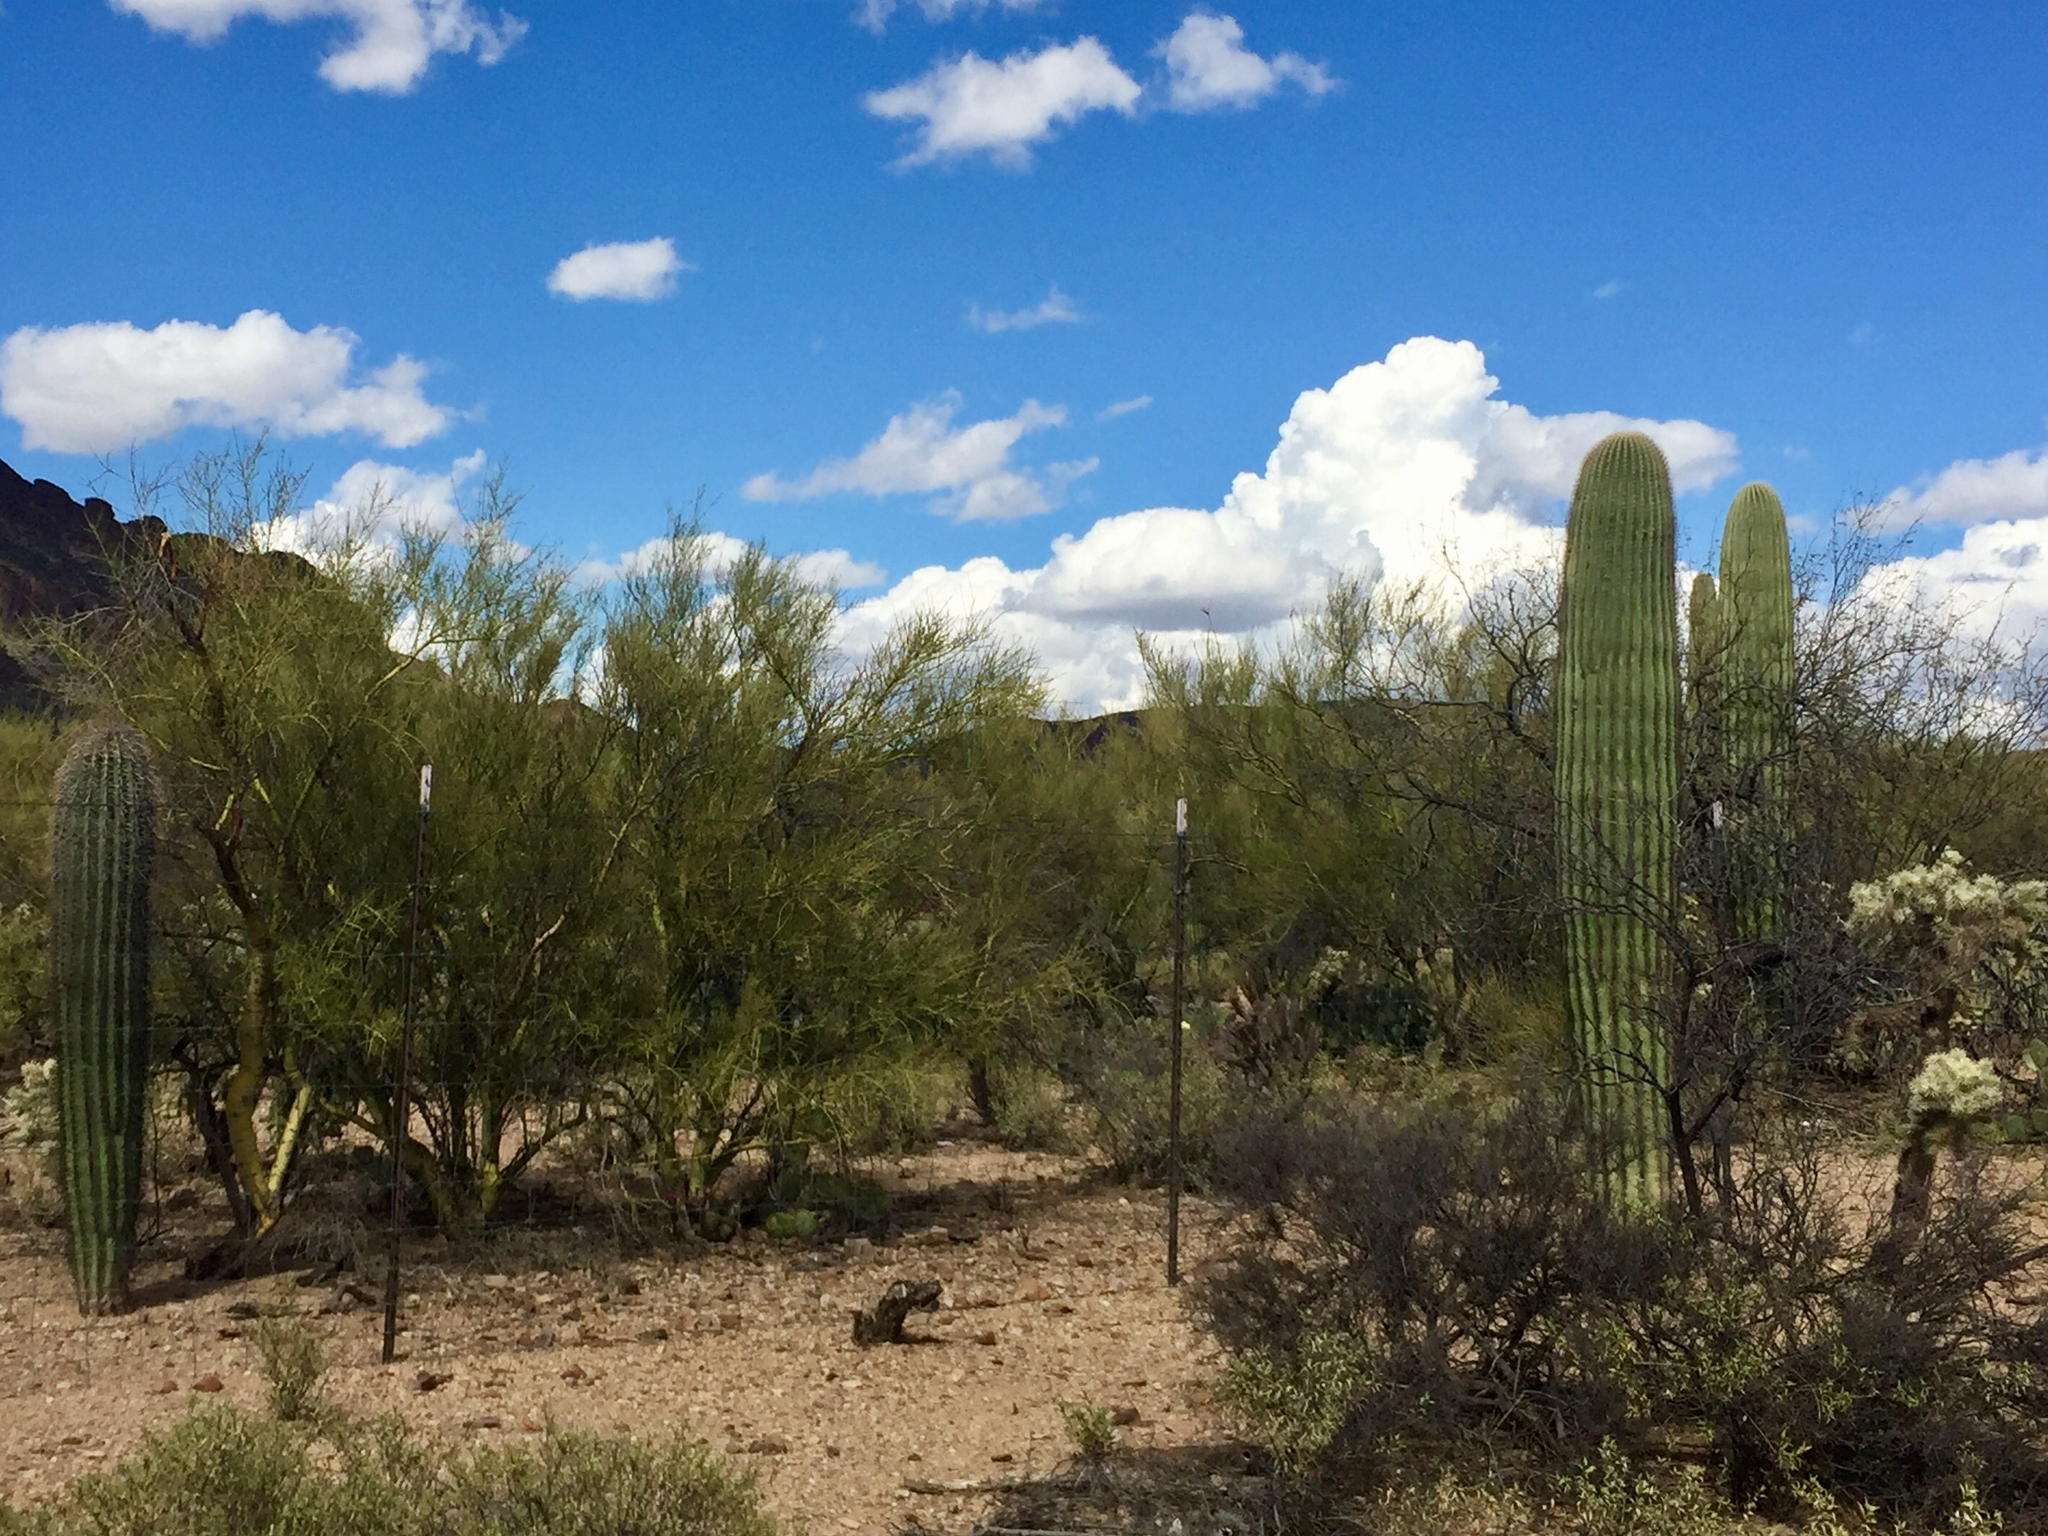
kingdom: Plantae
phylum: Tracheophyta
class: Magnoliopsida
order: Fabales
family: Fabaceae
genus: Parkinsonia
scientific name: Parkinsonia microphylla
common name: Yellow paloverde
